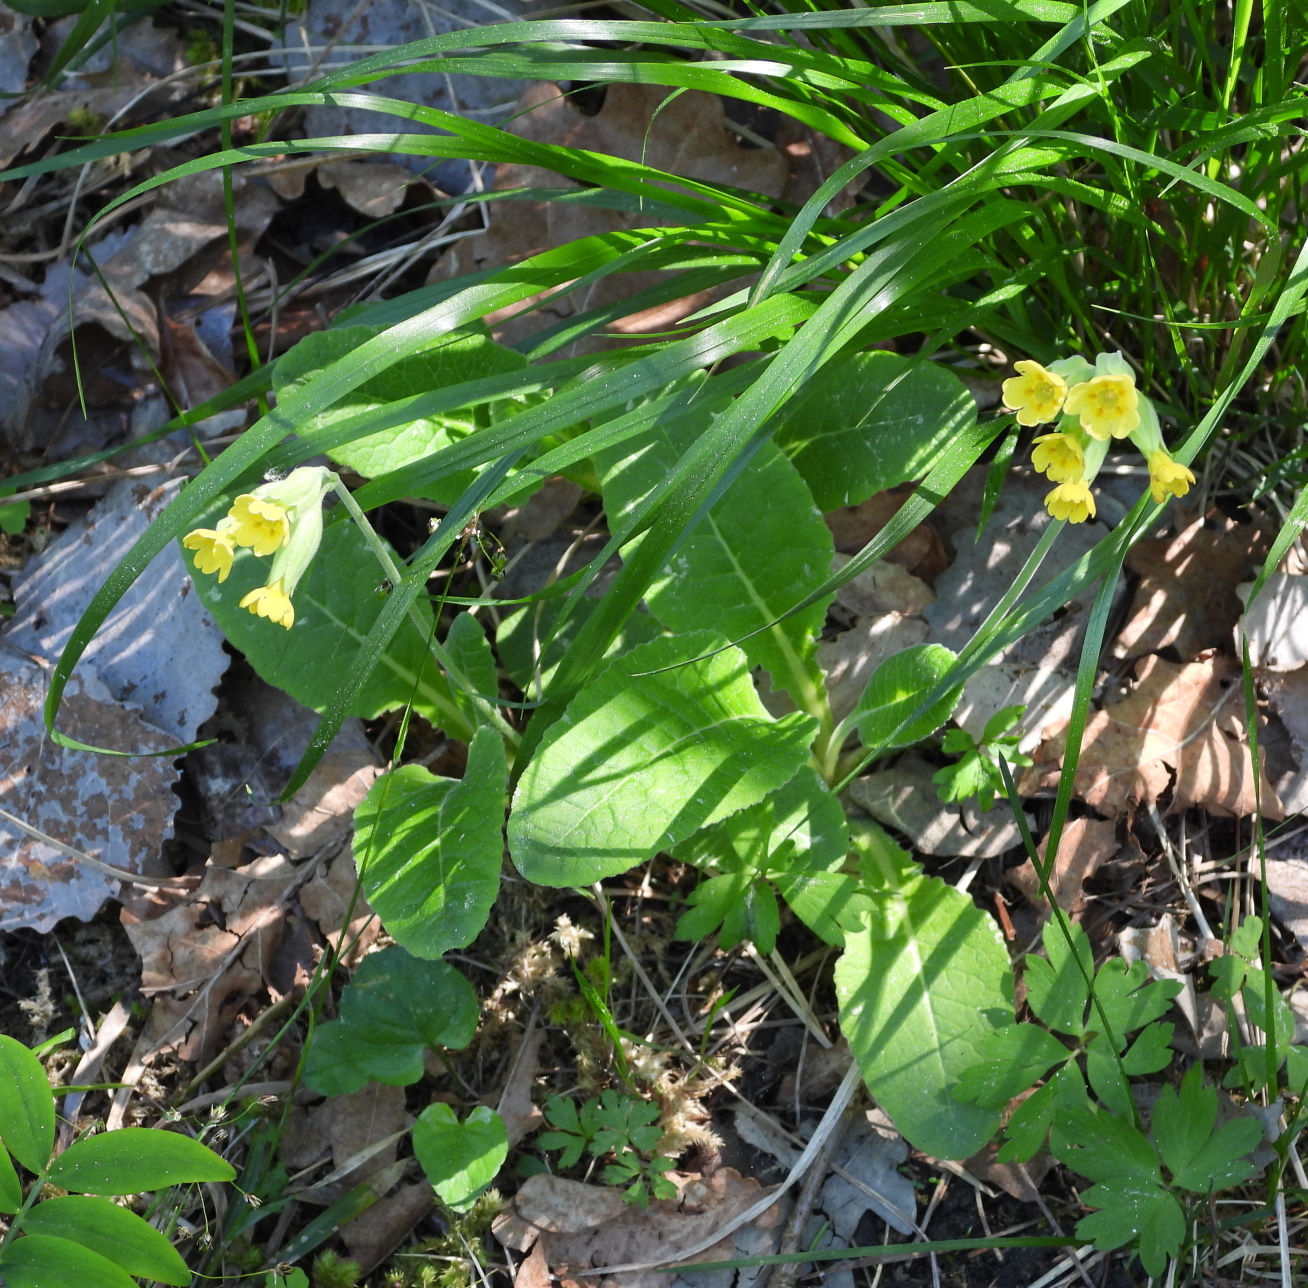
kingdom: Plantae
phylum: Tracheophyta
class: Magnoliopsida
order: Ericales
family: Primulaceae
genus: Primula
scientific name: Primula veris
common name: Cowslip
